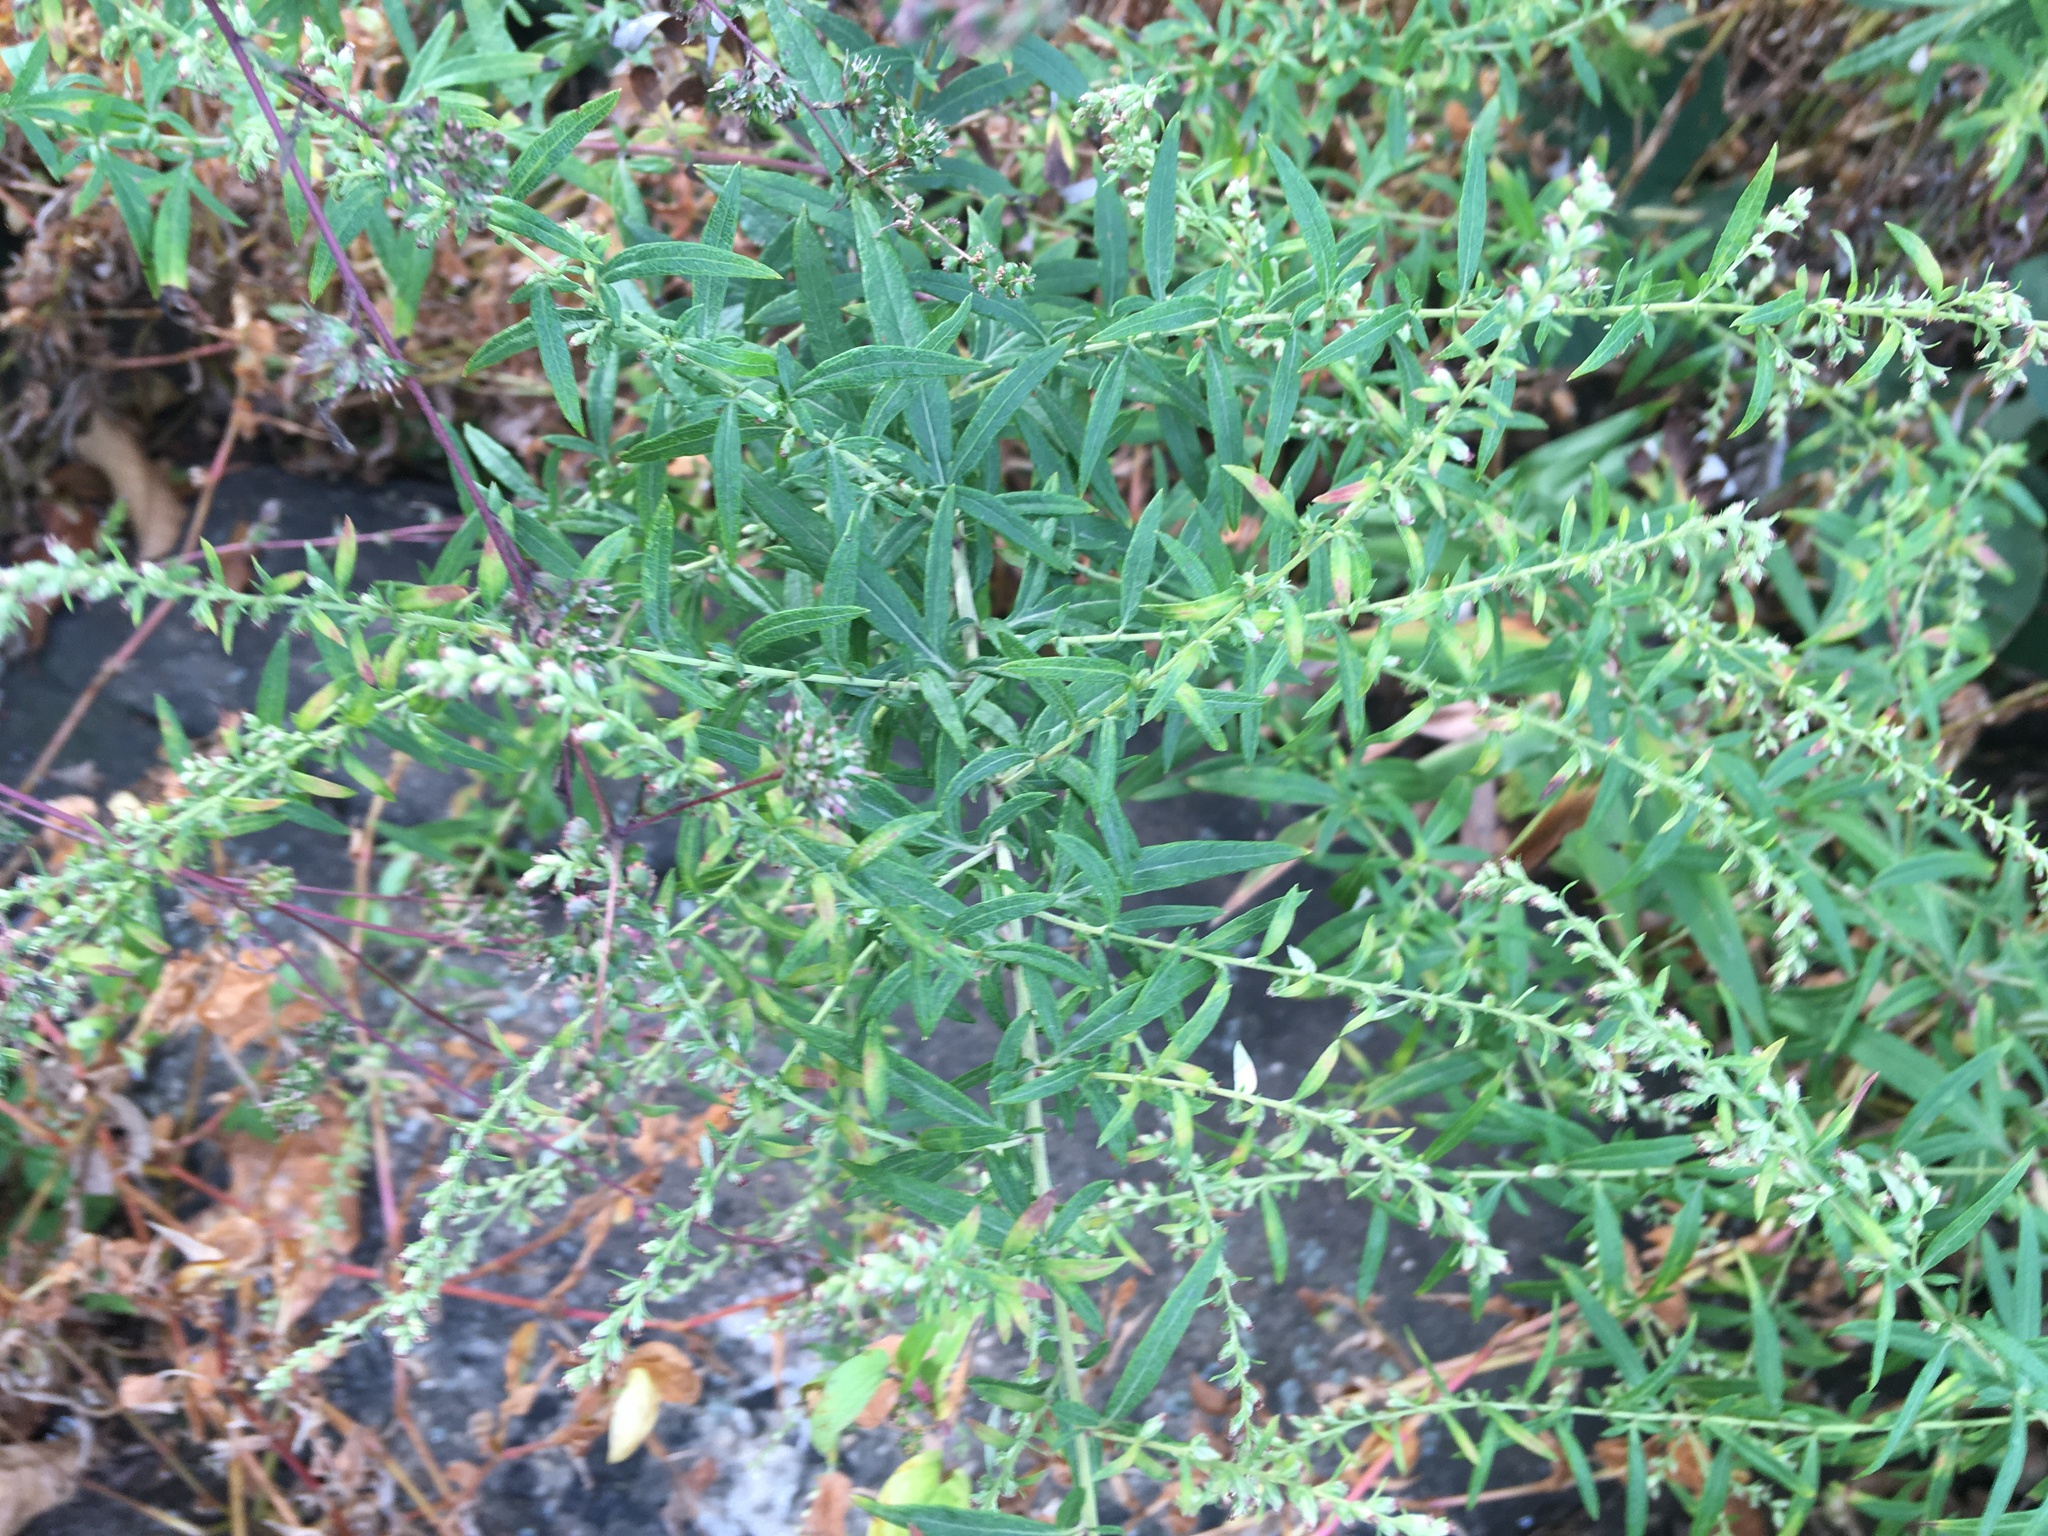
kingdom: Plantae
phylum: Tracheophyta
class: Magnoliopsida
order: Asterales
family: Asteraceae
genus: Artemisia
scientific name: Artemisia vulgaris
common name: Mugwort
